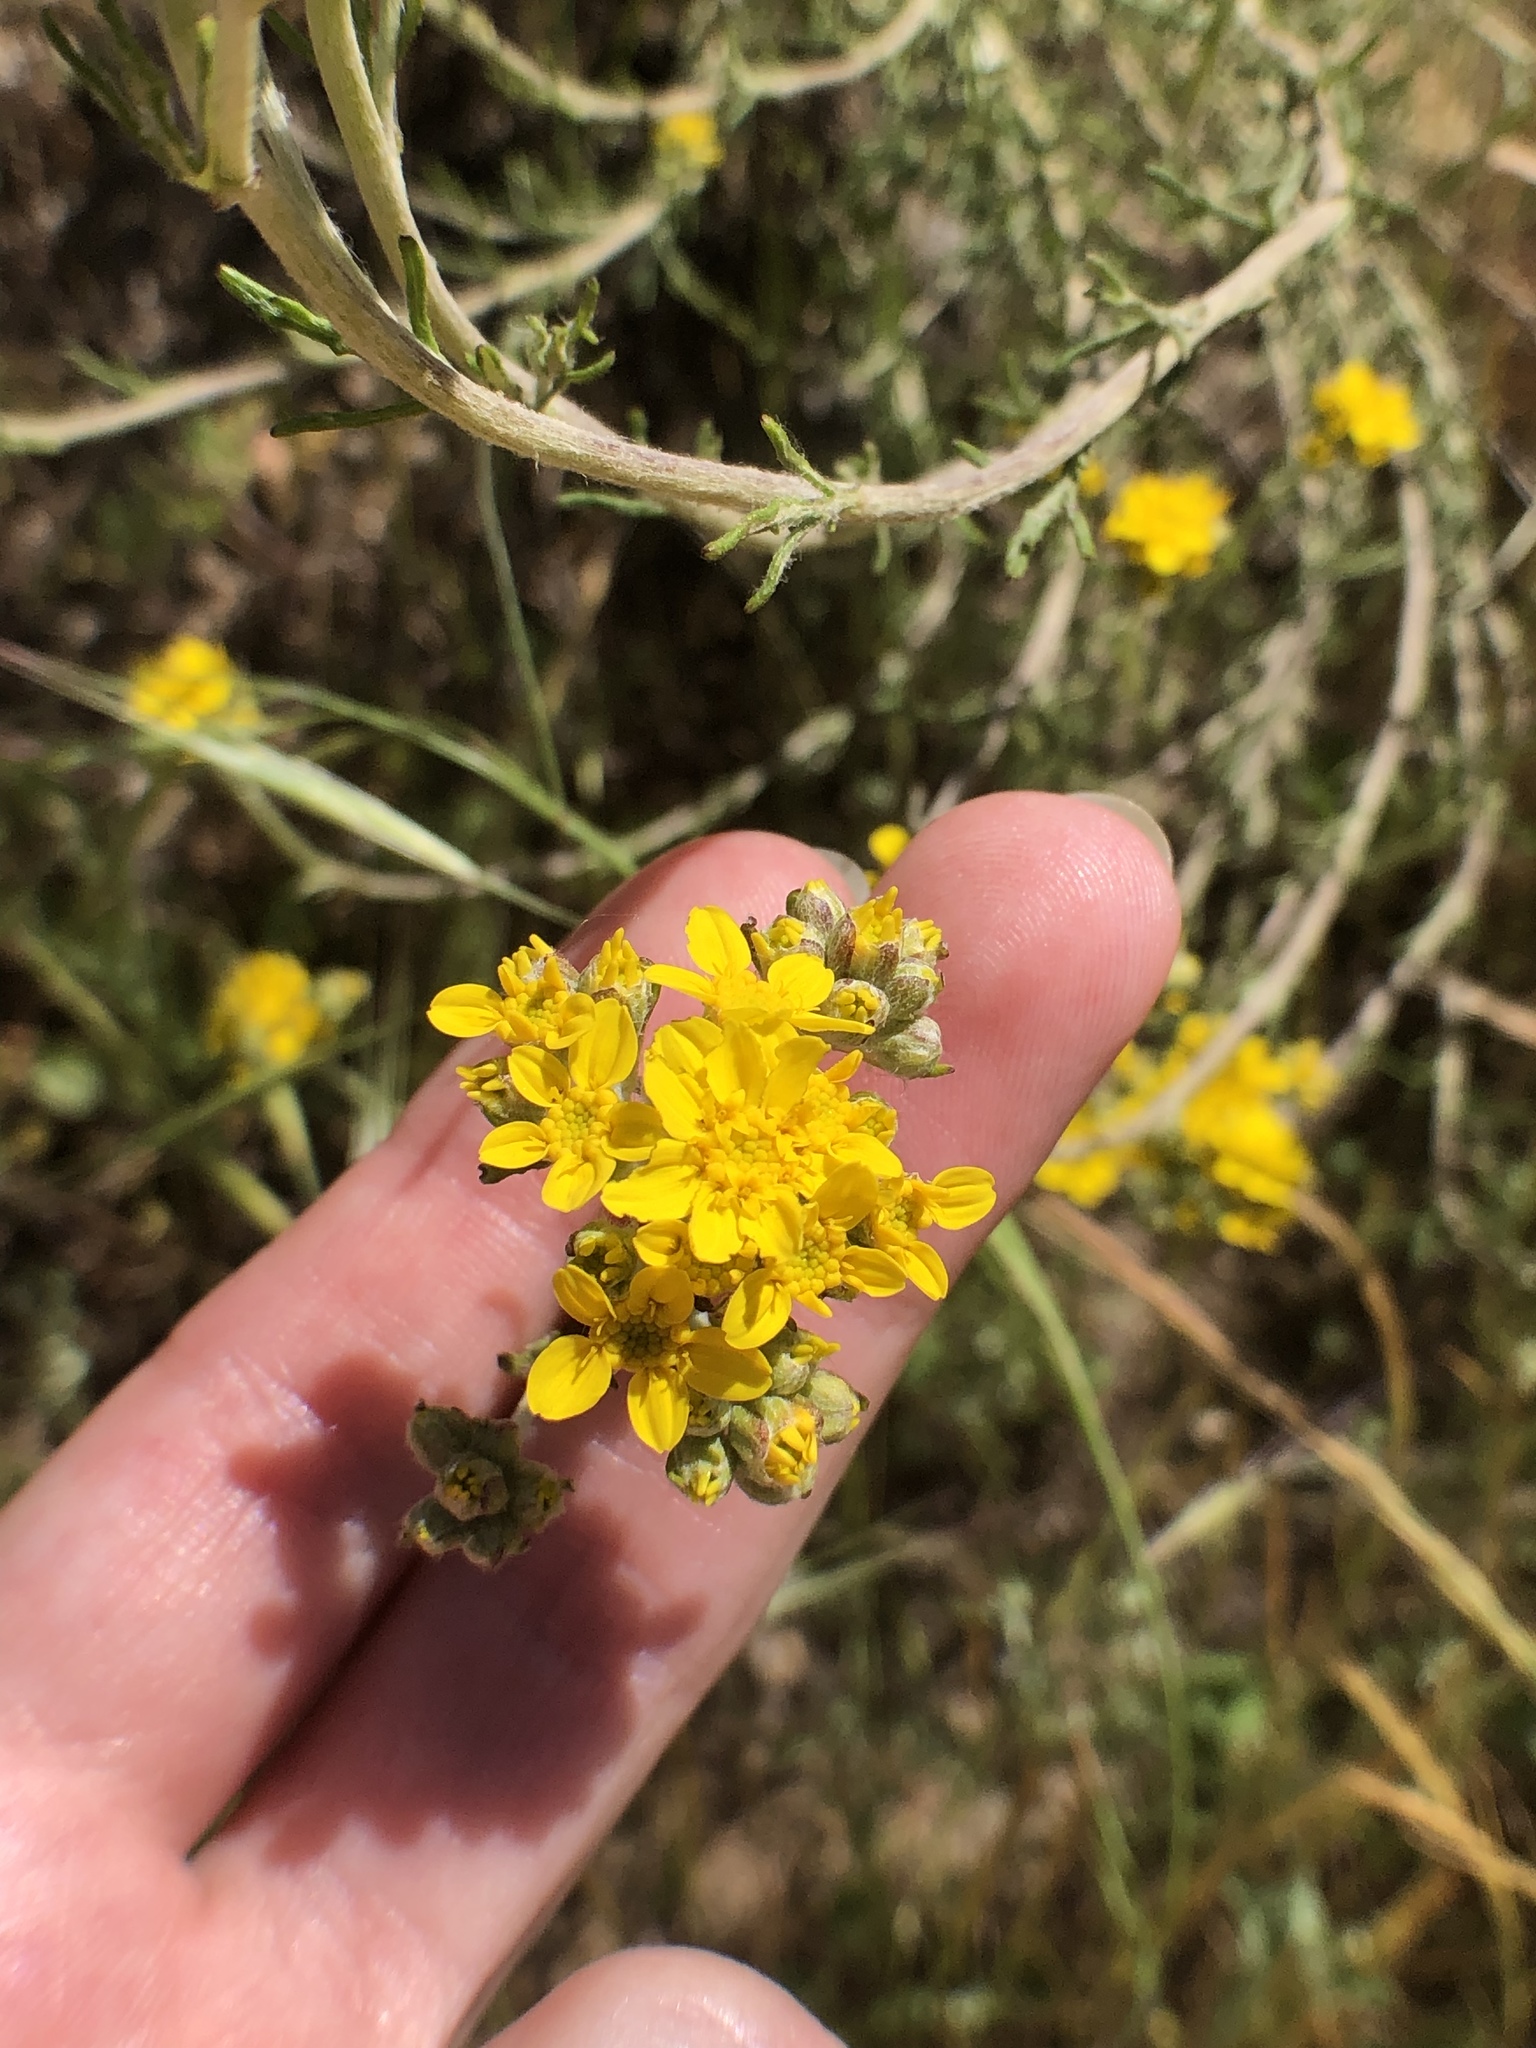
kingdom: Plantae
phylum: Tracheophyta
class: Magnoliopsida
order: Asterales
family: Asteraceae
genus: Eriophyllum
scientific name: Eriophyllum confertiflorum
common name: Golden-yarrow
